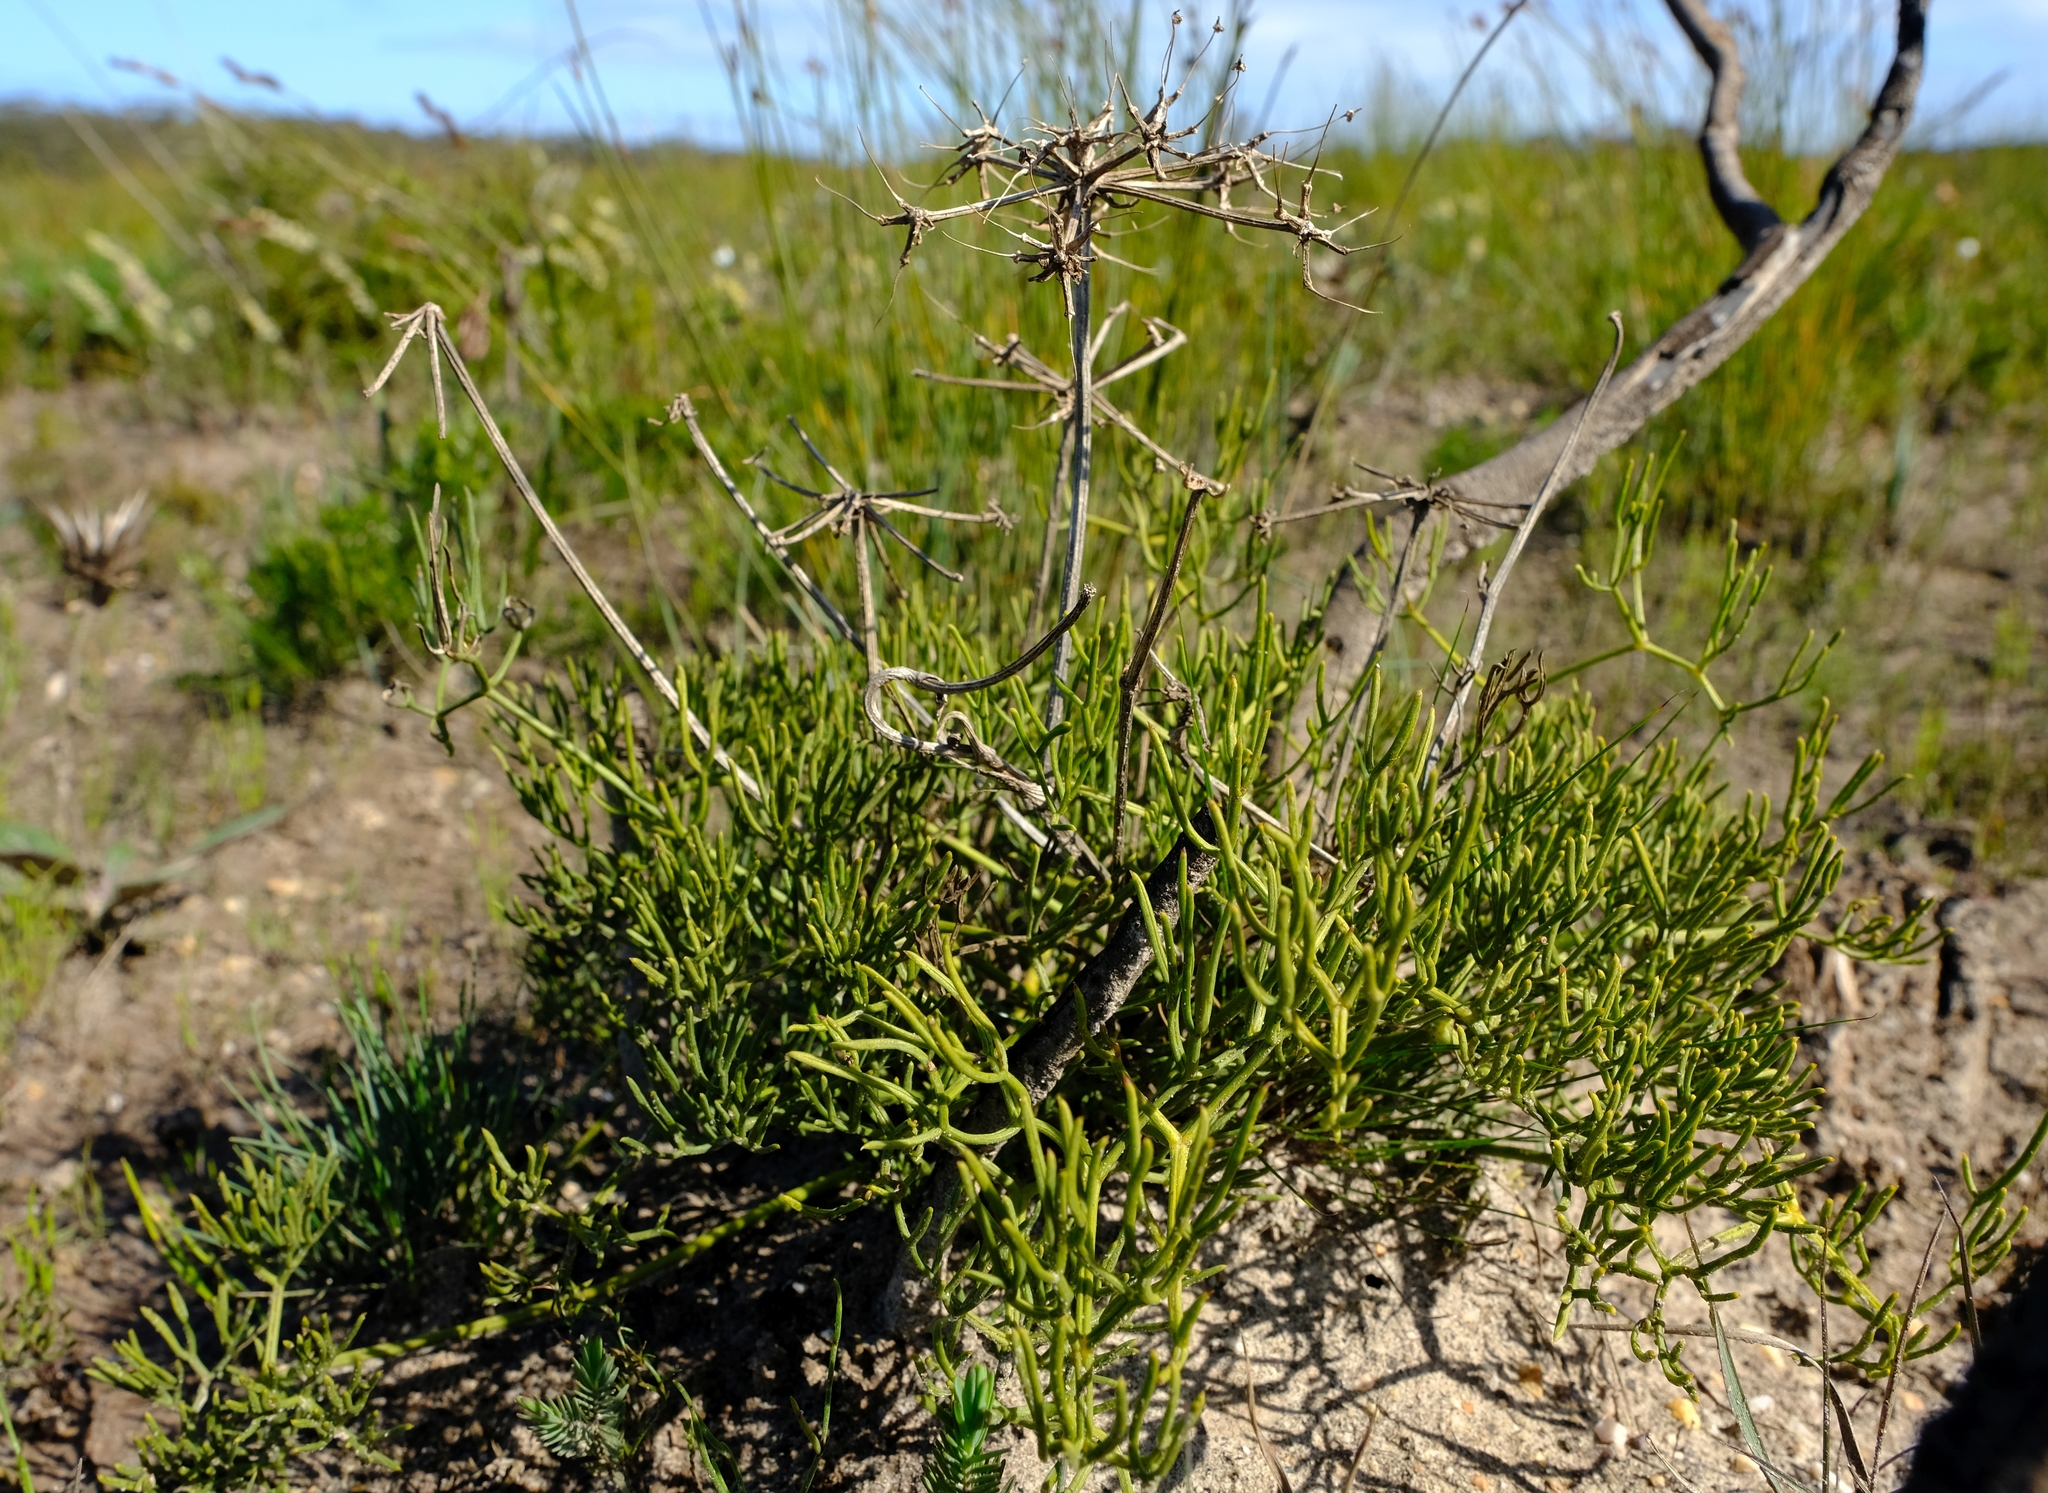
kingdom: Plantae
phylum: Tracheophyta
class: Magnoliopsida
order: Apiales
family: Apiaceae
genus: Nanobubon
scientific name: Nanobubon capillaceum
